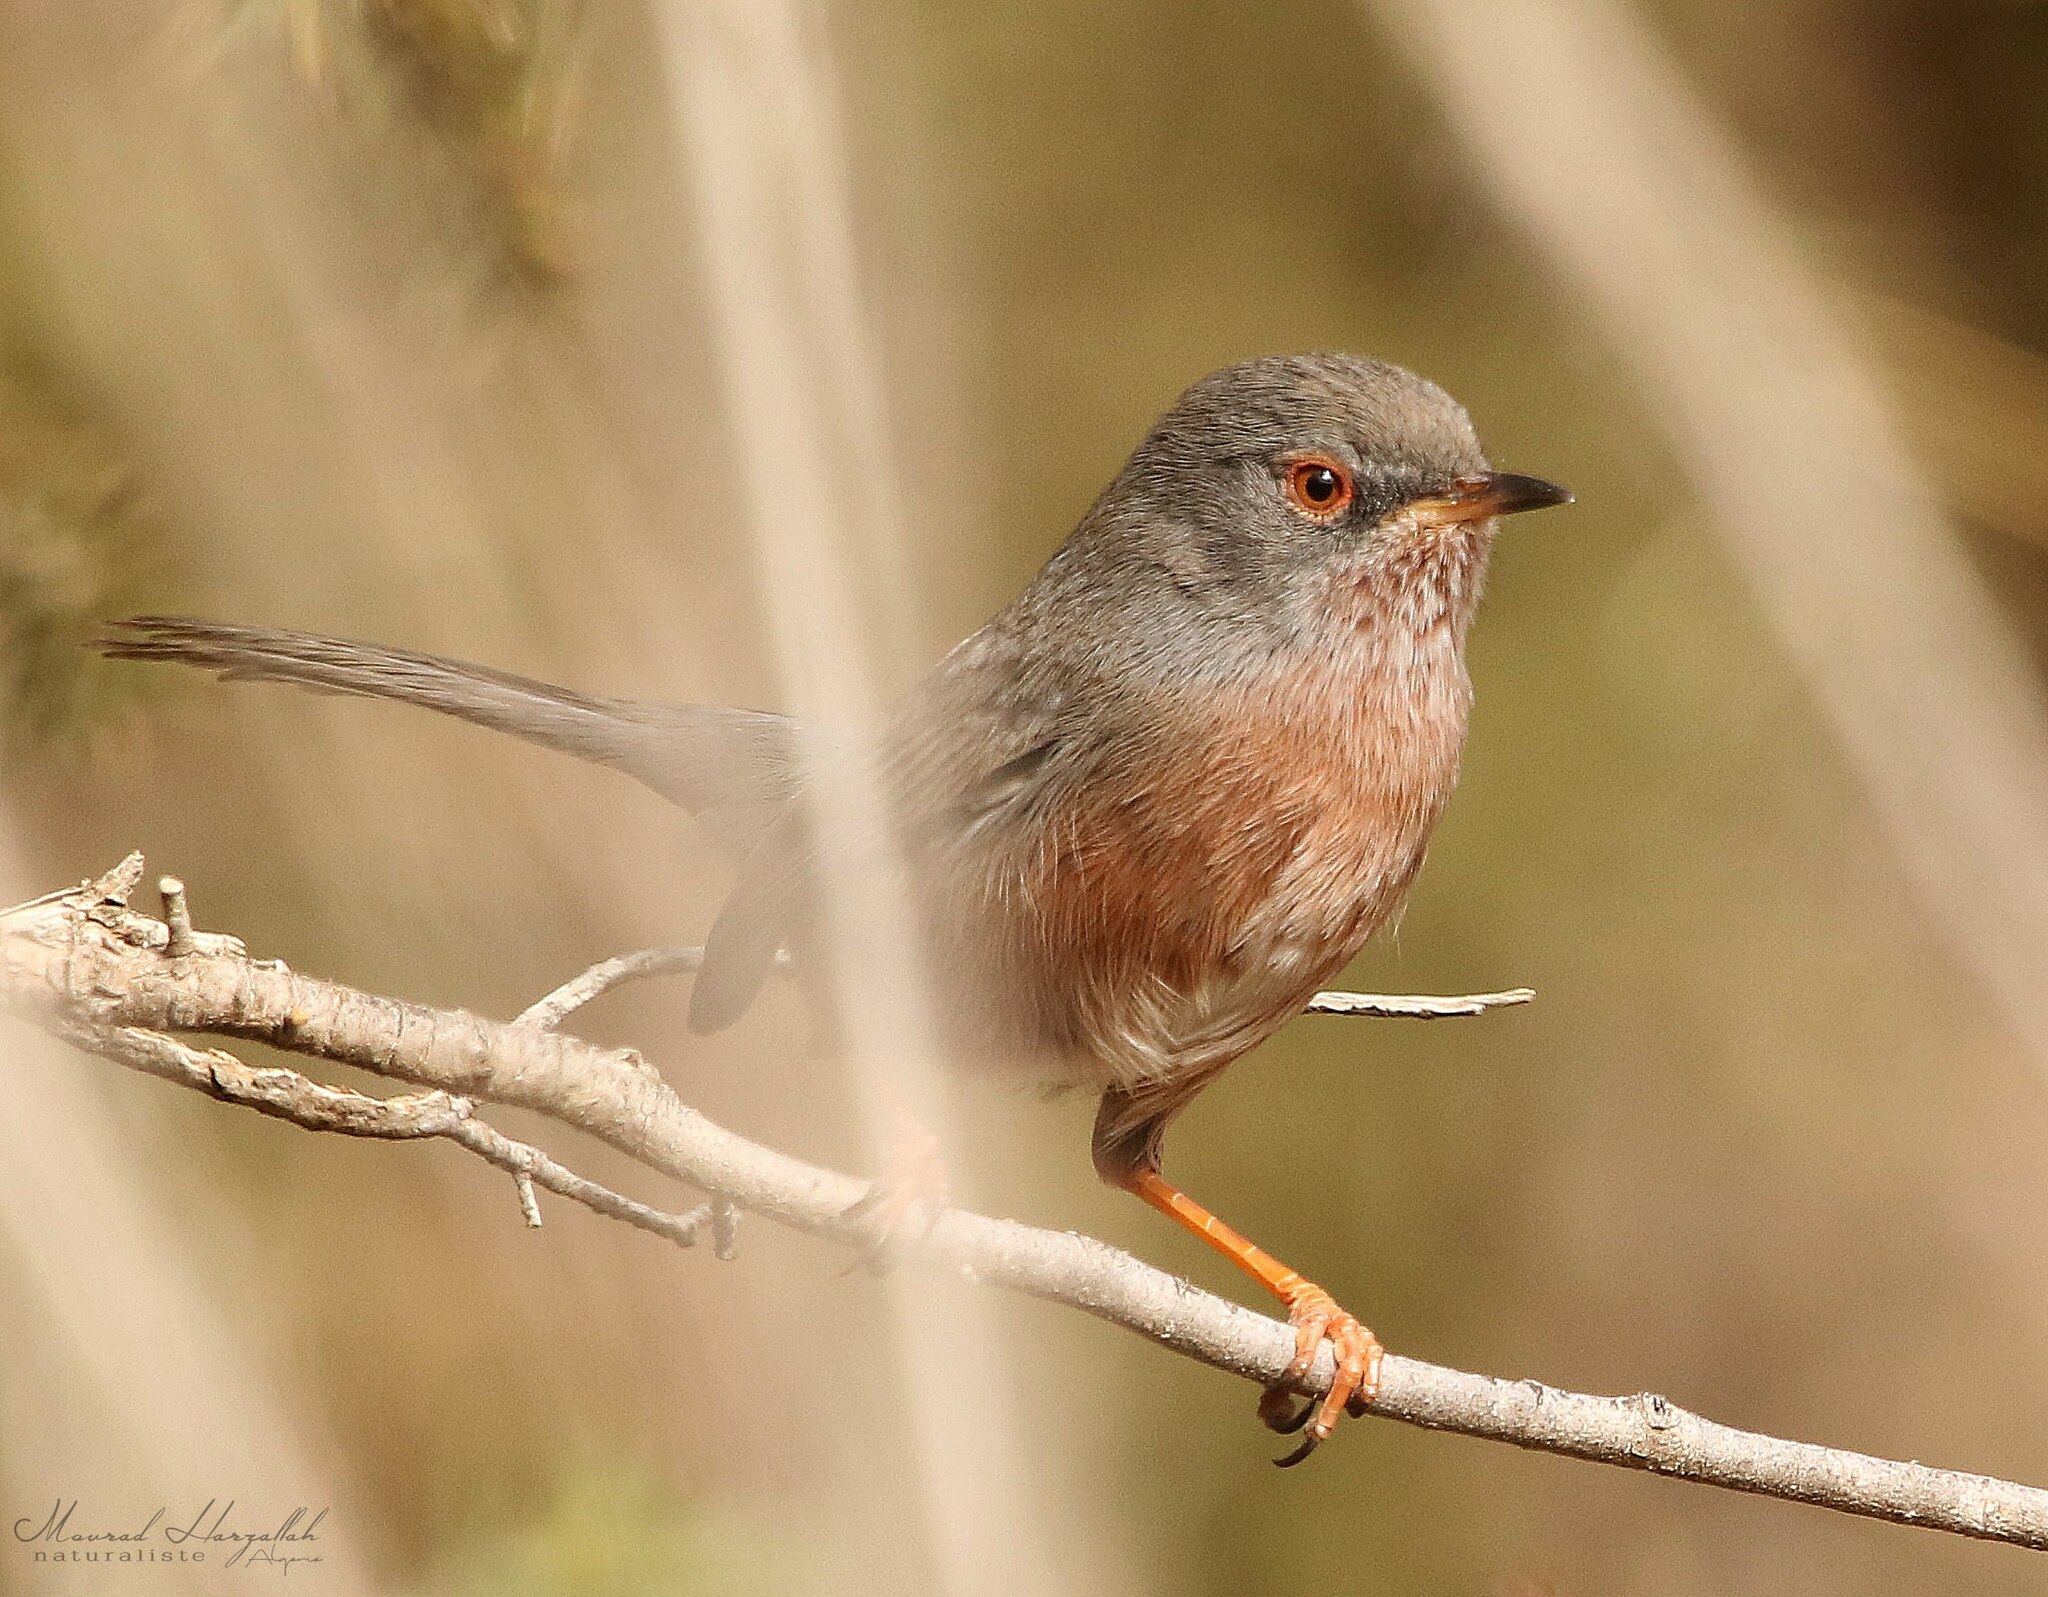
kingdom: Animalia
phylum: Chordata
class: Aves
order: Passeriformes
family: Sylviidae
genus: Sylvia
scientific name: Sylvia undata
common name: Dartford warbler
